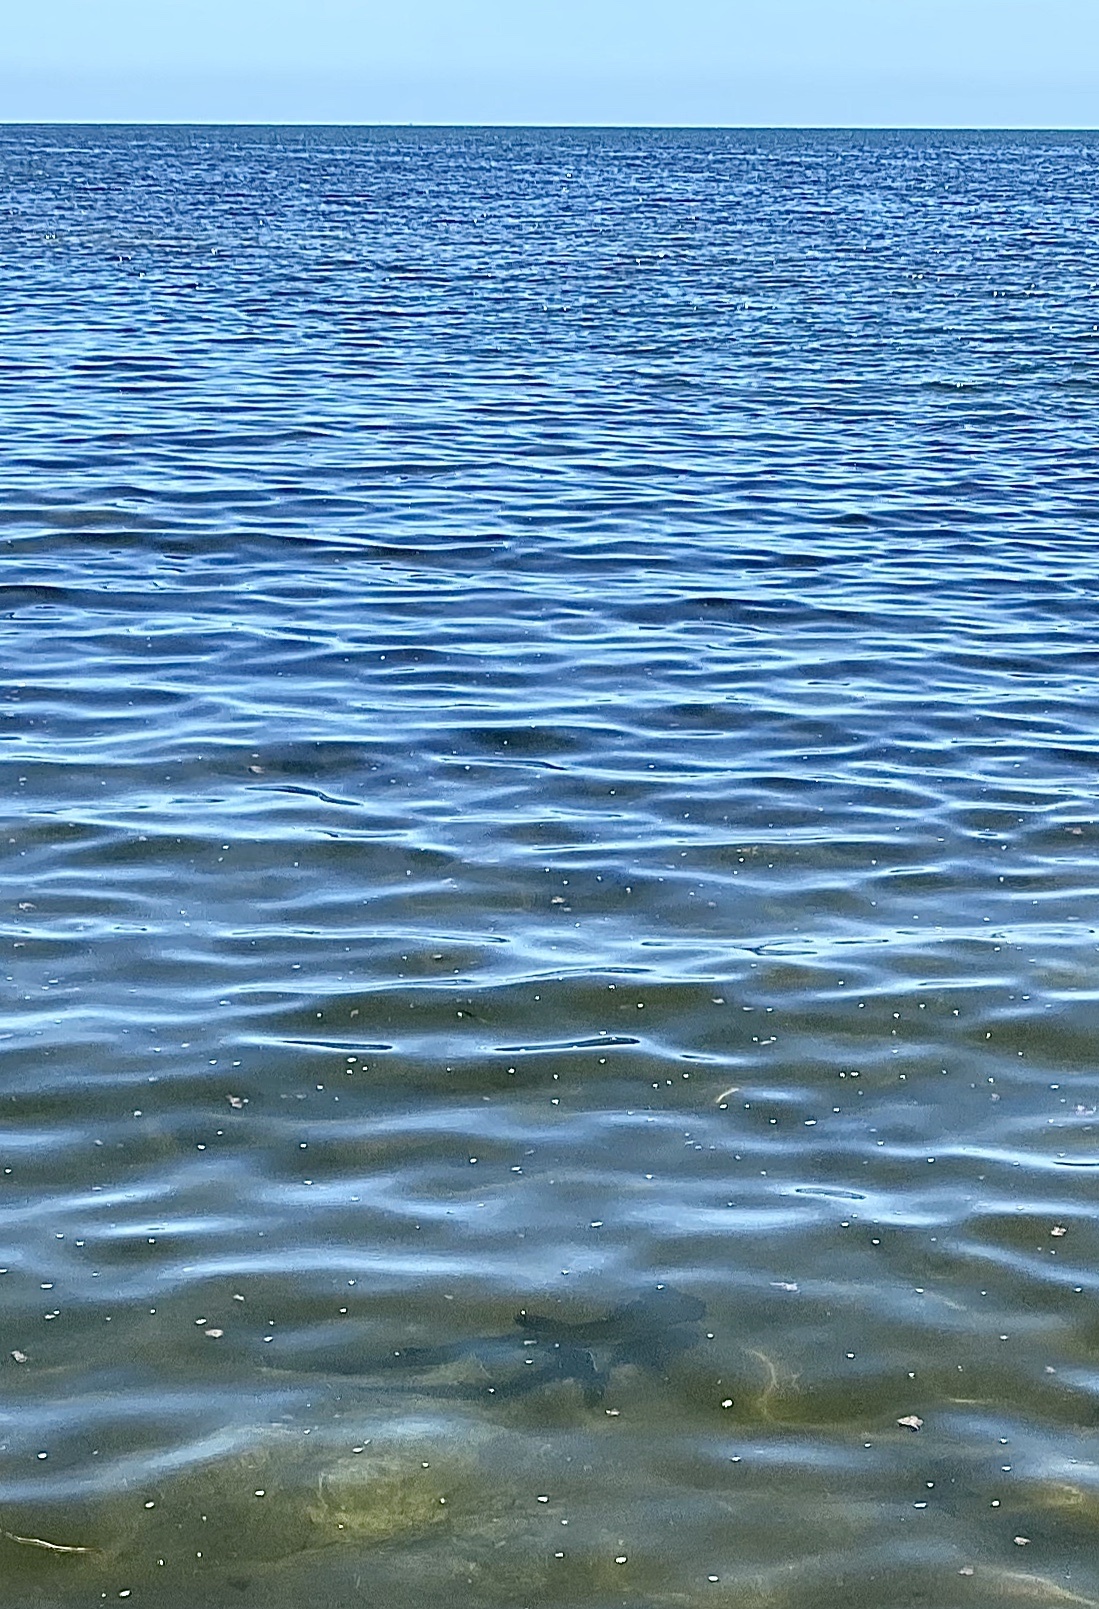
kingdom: Animalia
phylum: Chordata
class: Elasmobranchii
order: Carcharhiniformes
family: Sphyrnidae
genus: Sphyrna
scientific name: Sphyrna tiburo
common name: Bonnethead
